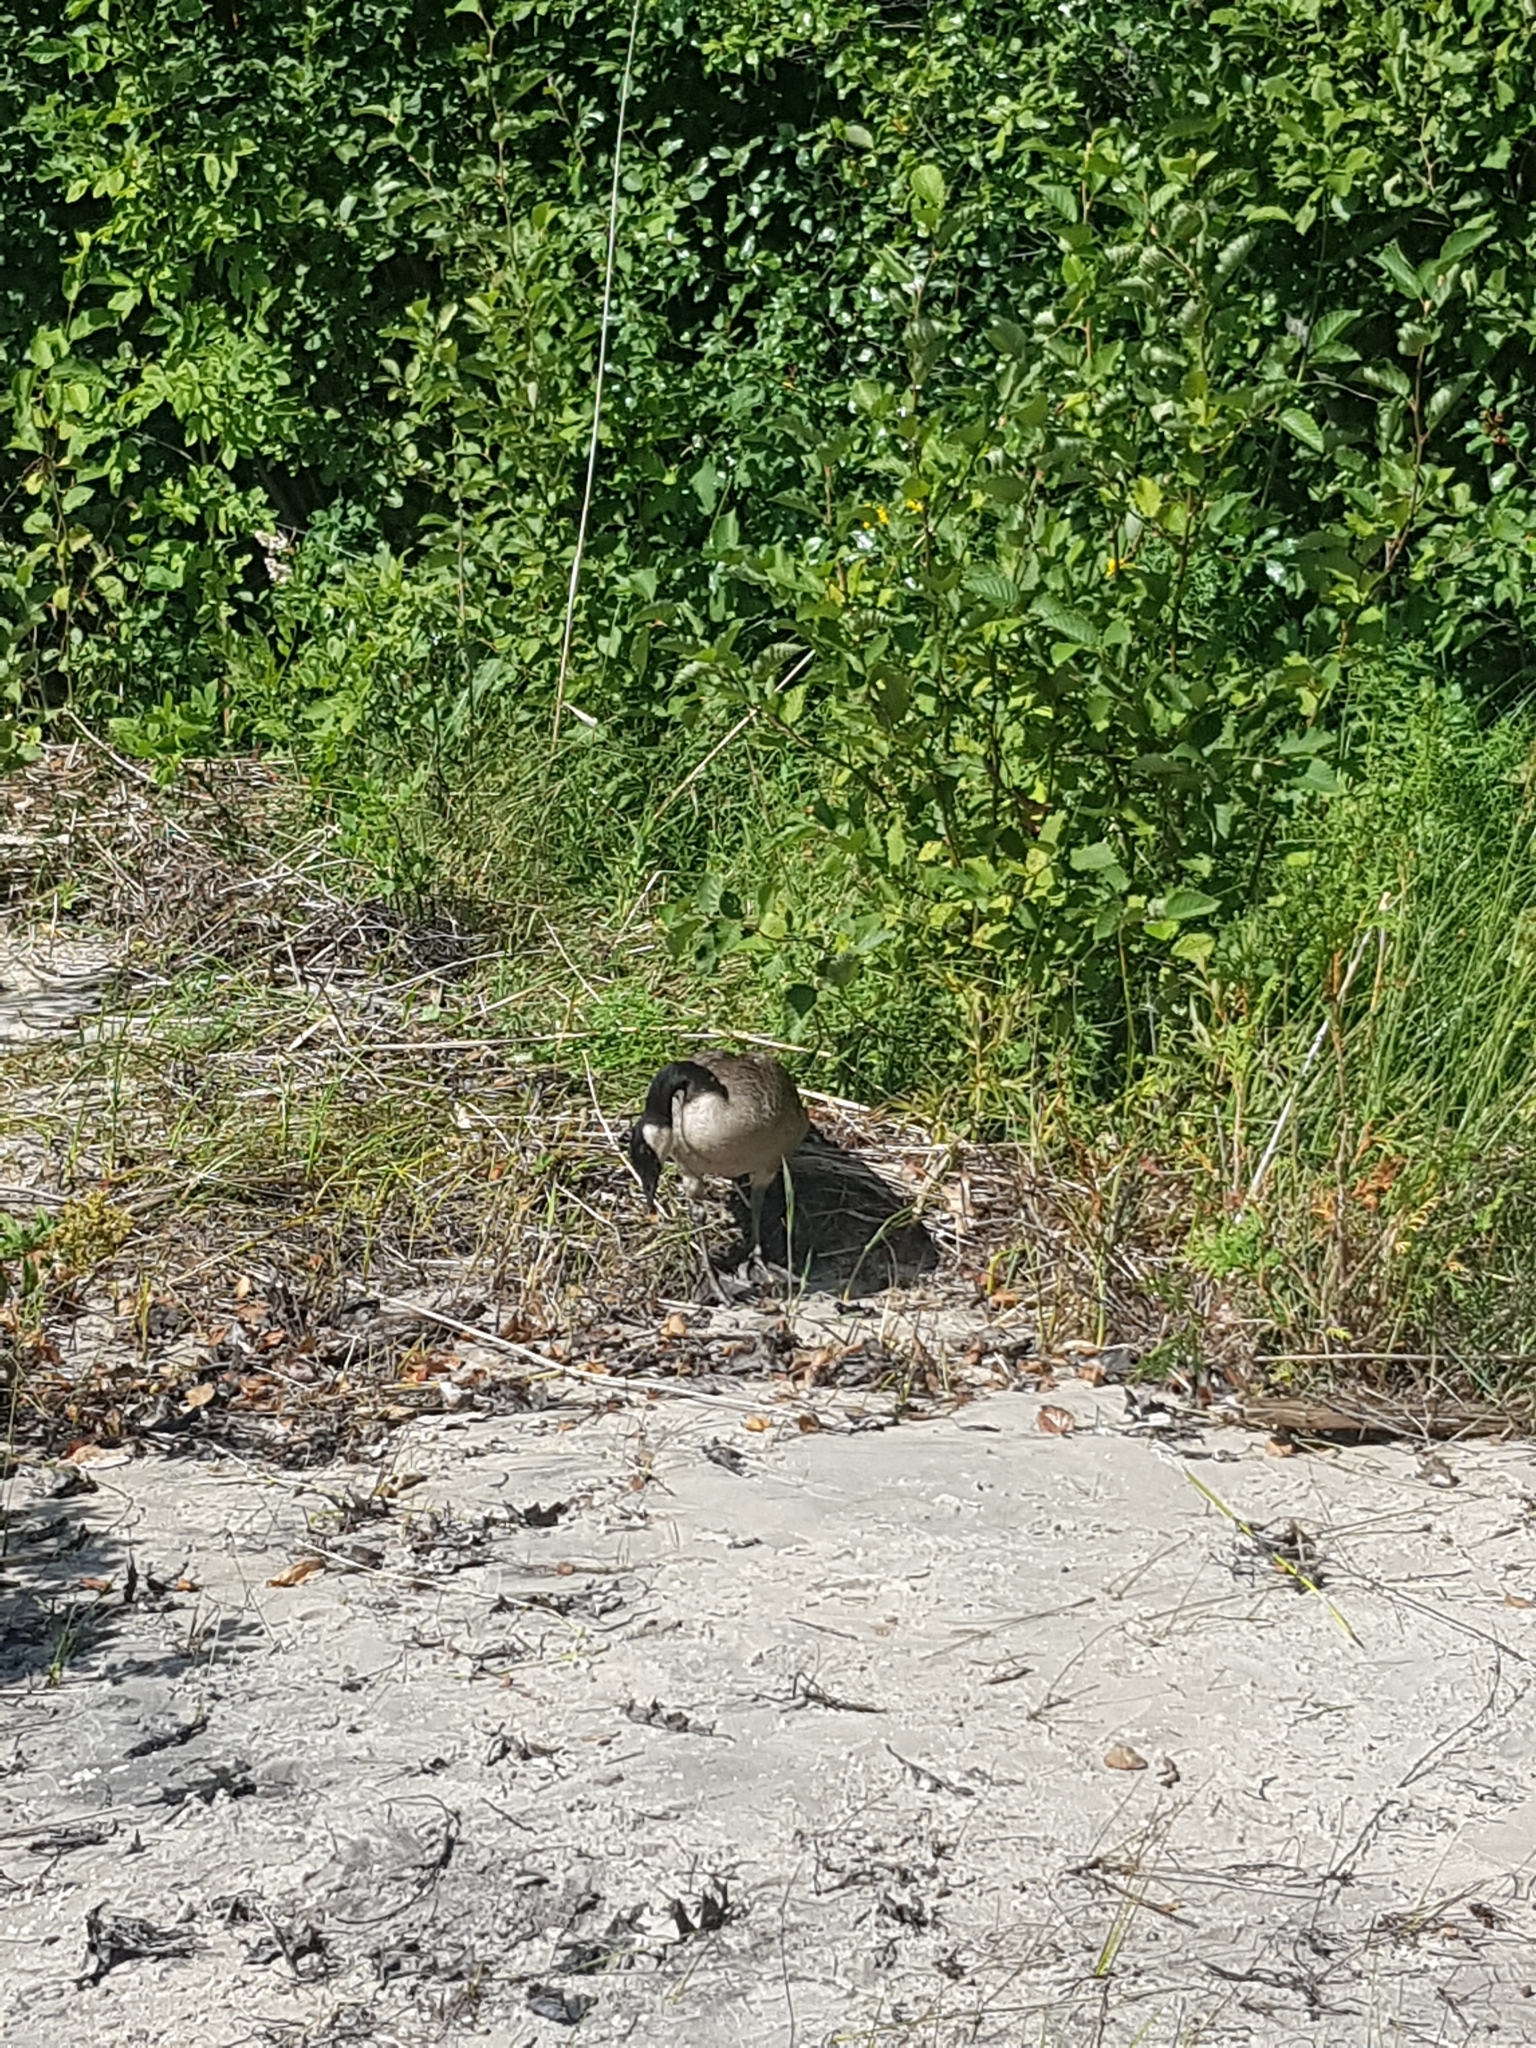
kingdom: Animalia
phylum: Chordata
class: Aves
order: Anseriformes
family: Anatidae
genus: Branta
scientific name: Branta canadensis
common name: Canada goose
